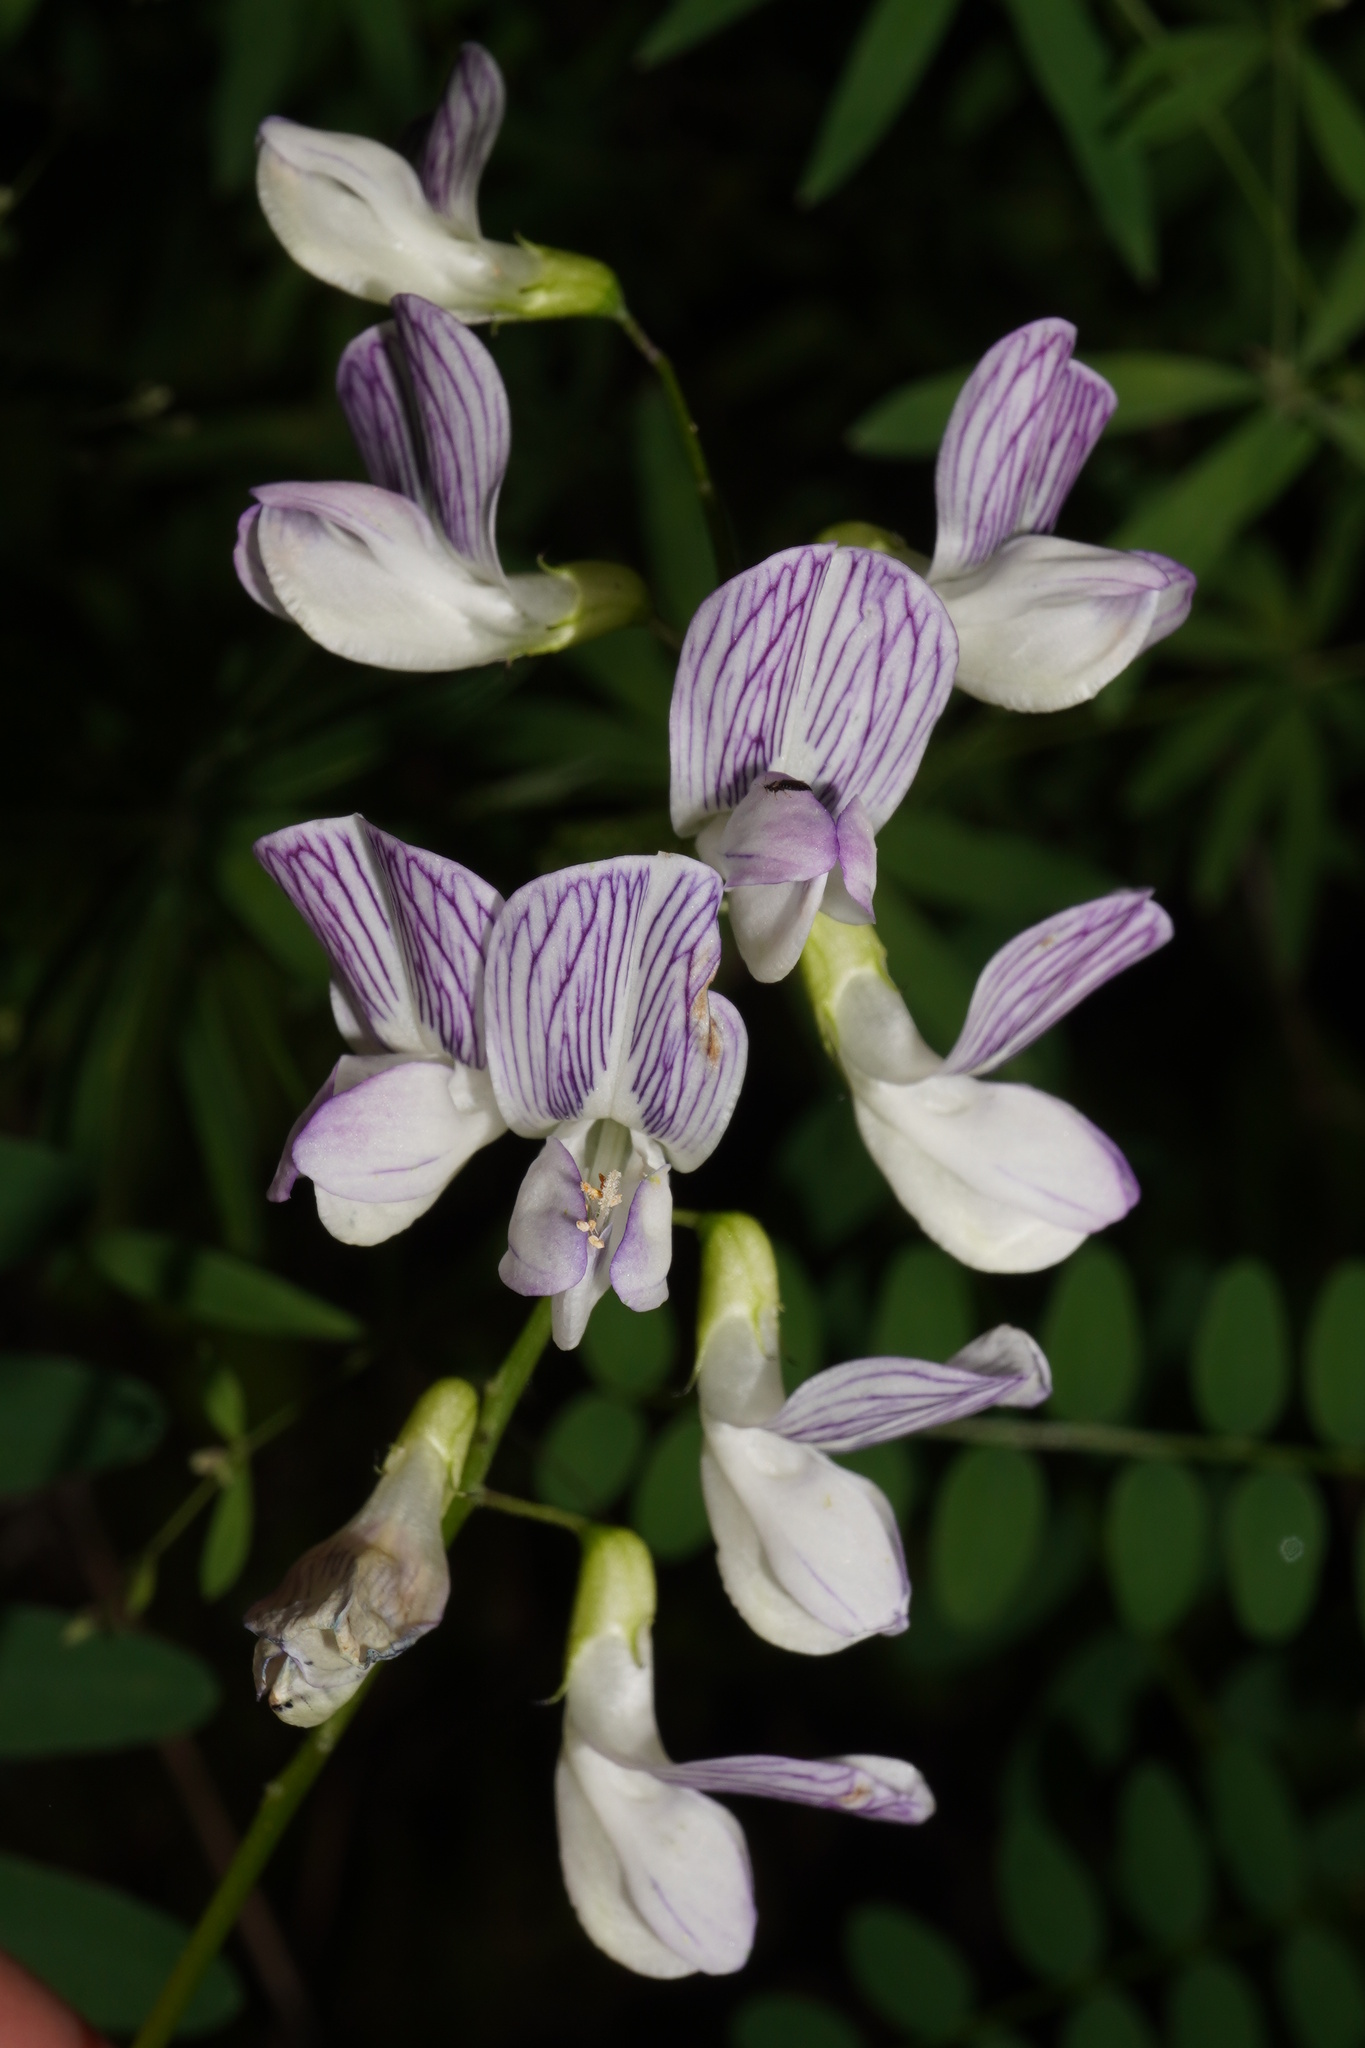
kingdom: Plantae
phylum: Tracheophyta
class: Magnoliopsida
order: Fabales
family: Fabaceae
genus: Vicia
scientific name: Vicia sylvatica
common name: Wood vetch
